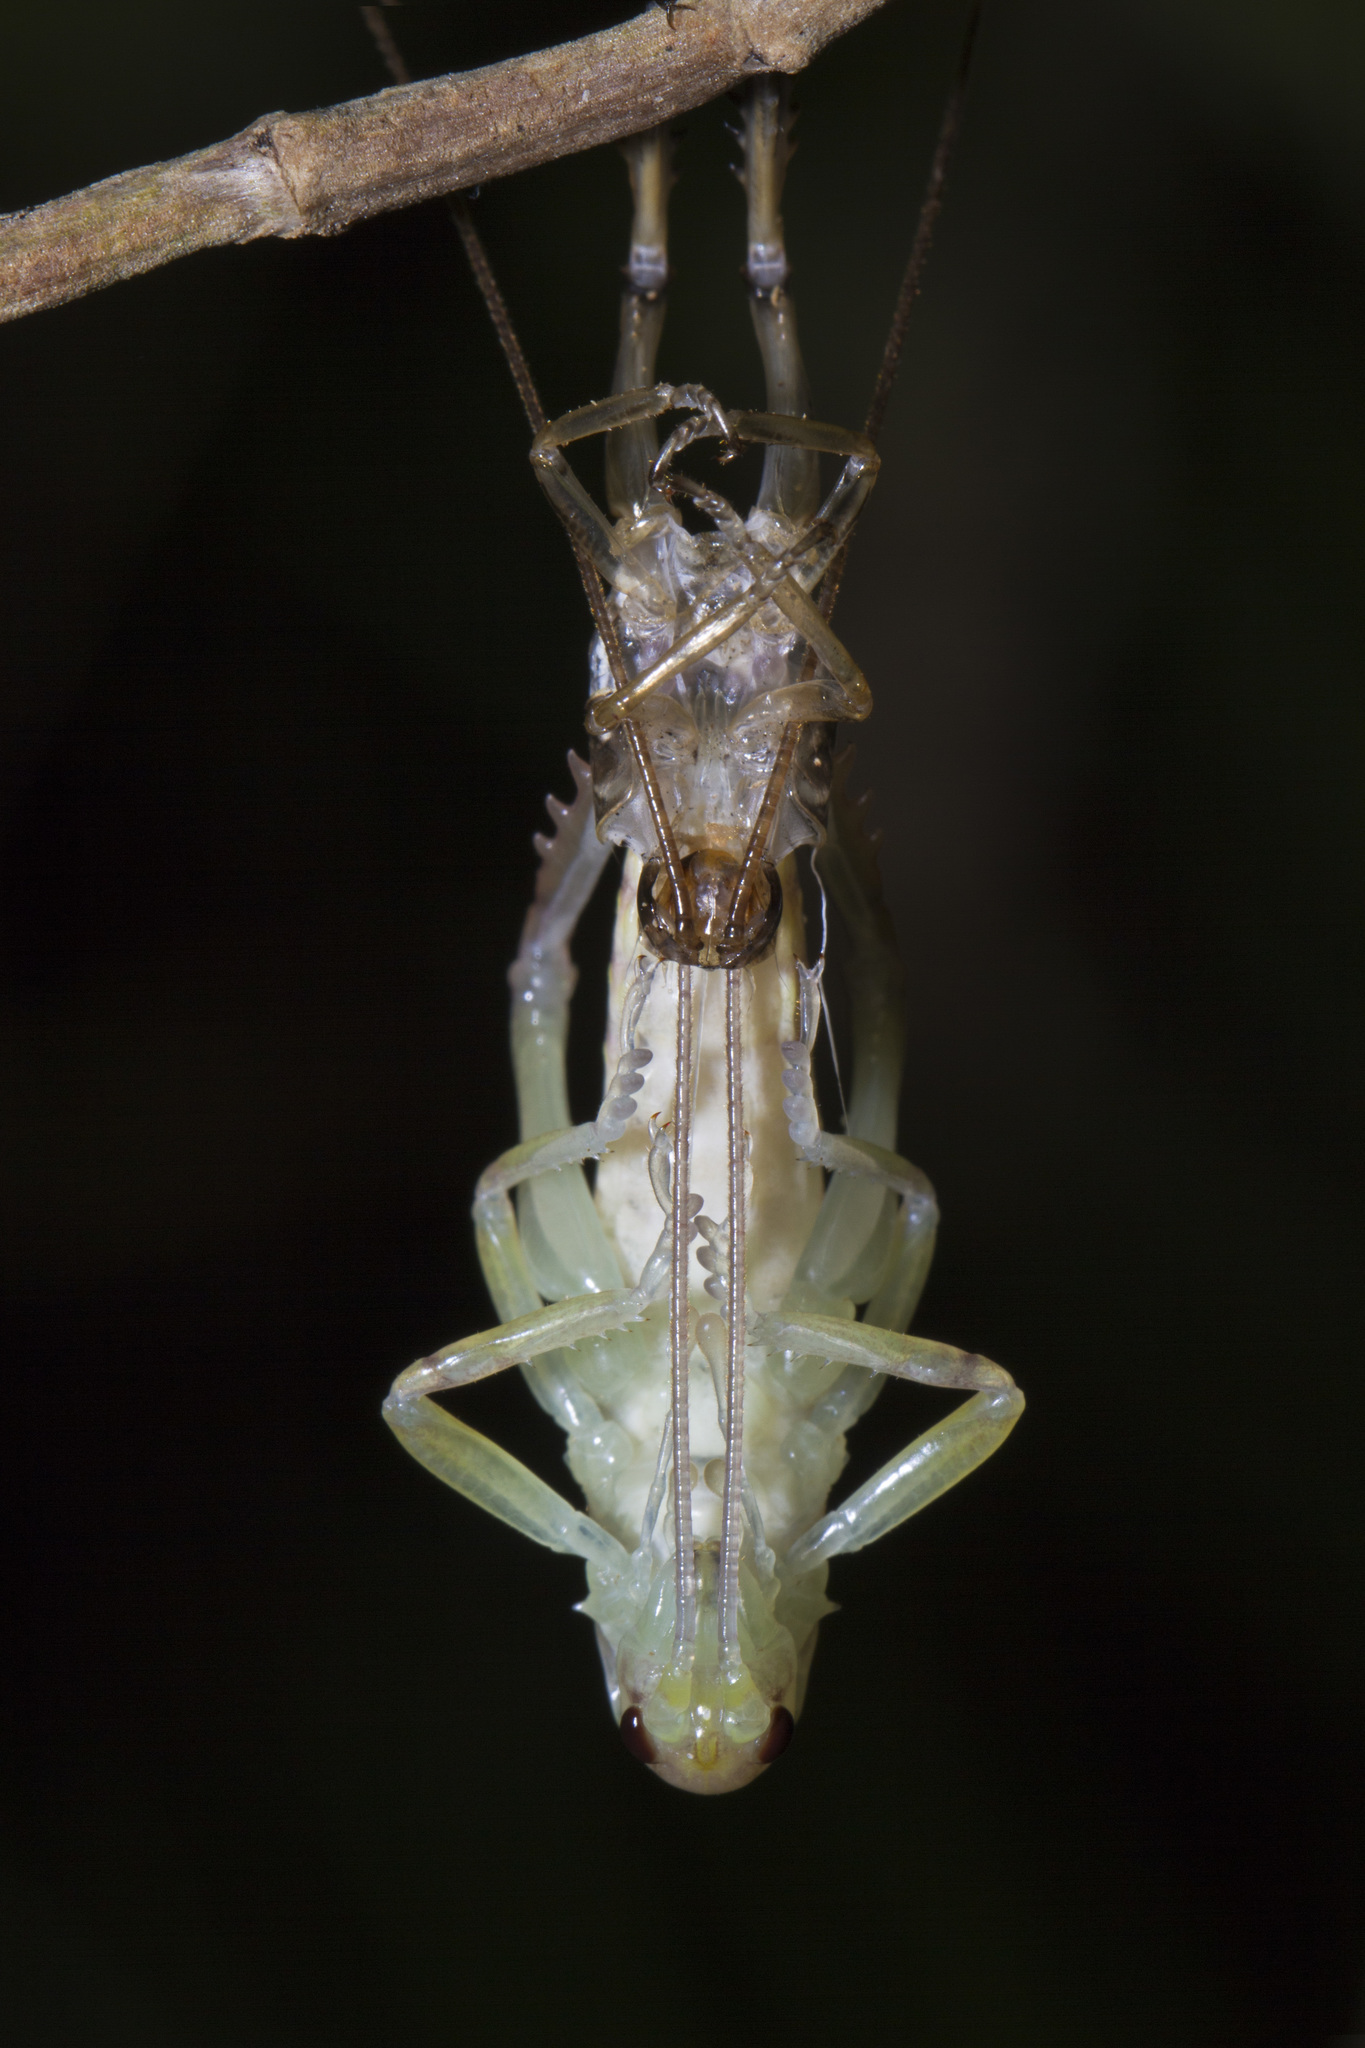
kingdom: Animalia
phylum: Arthropoda
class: Insecta
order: Orthoptera
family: Anostostomatidae
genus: Hemideina
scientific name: Hemideina thoracica
